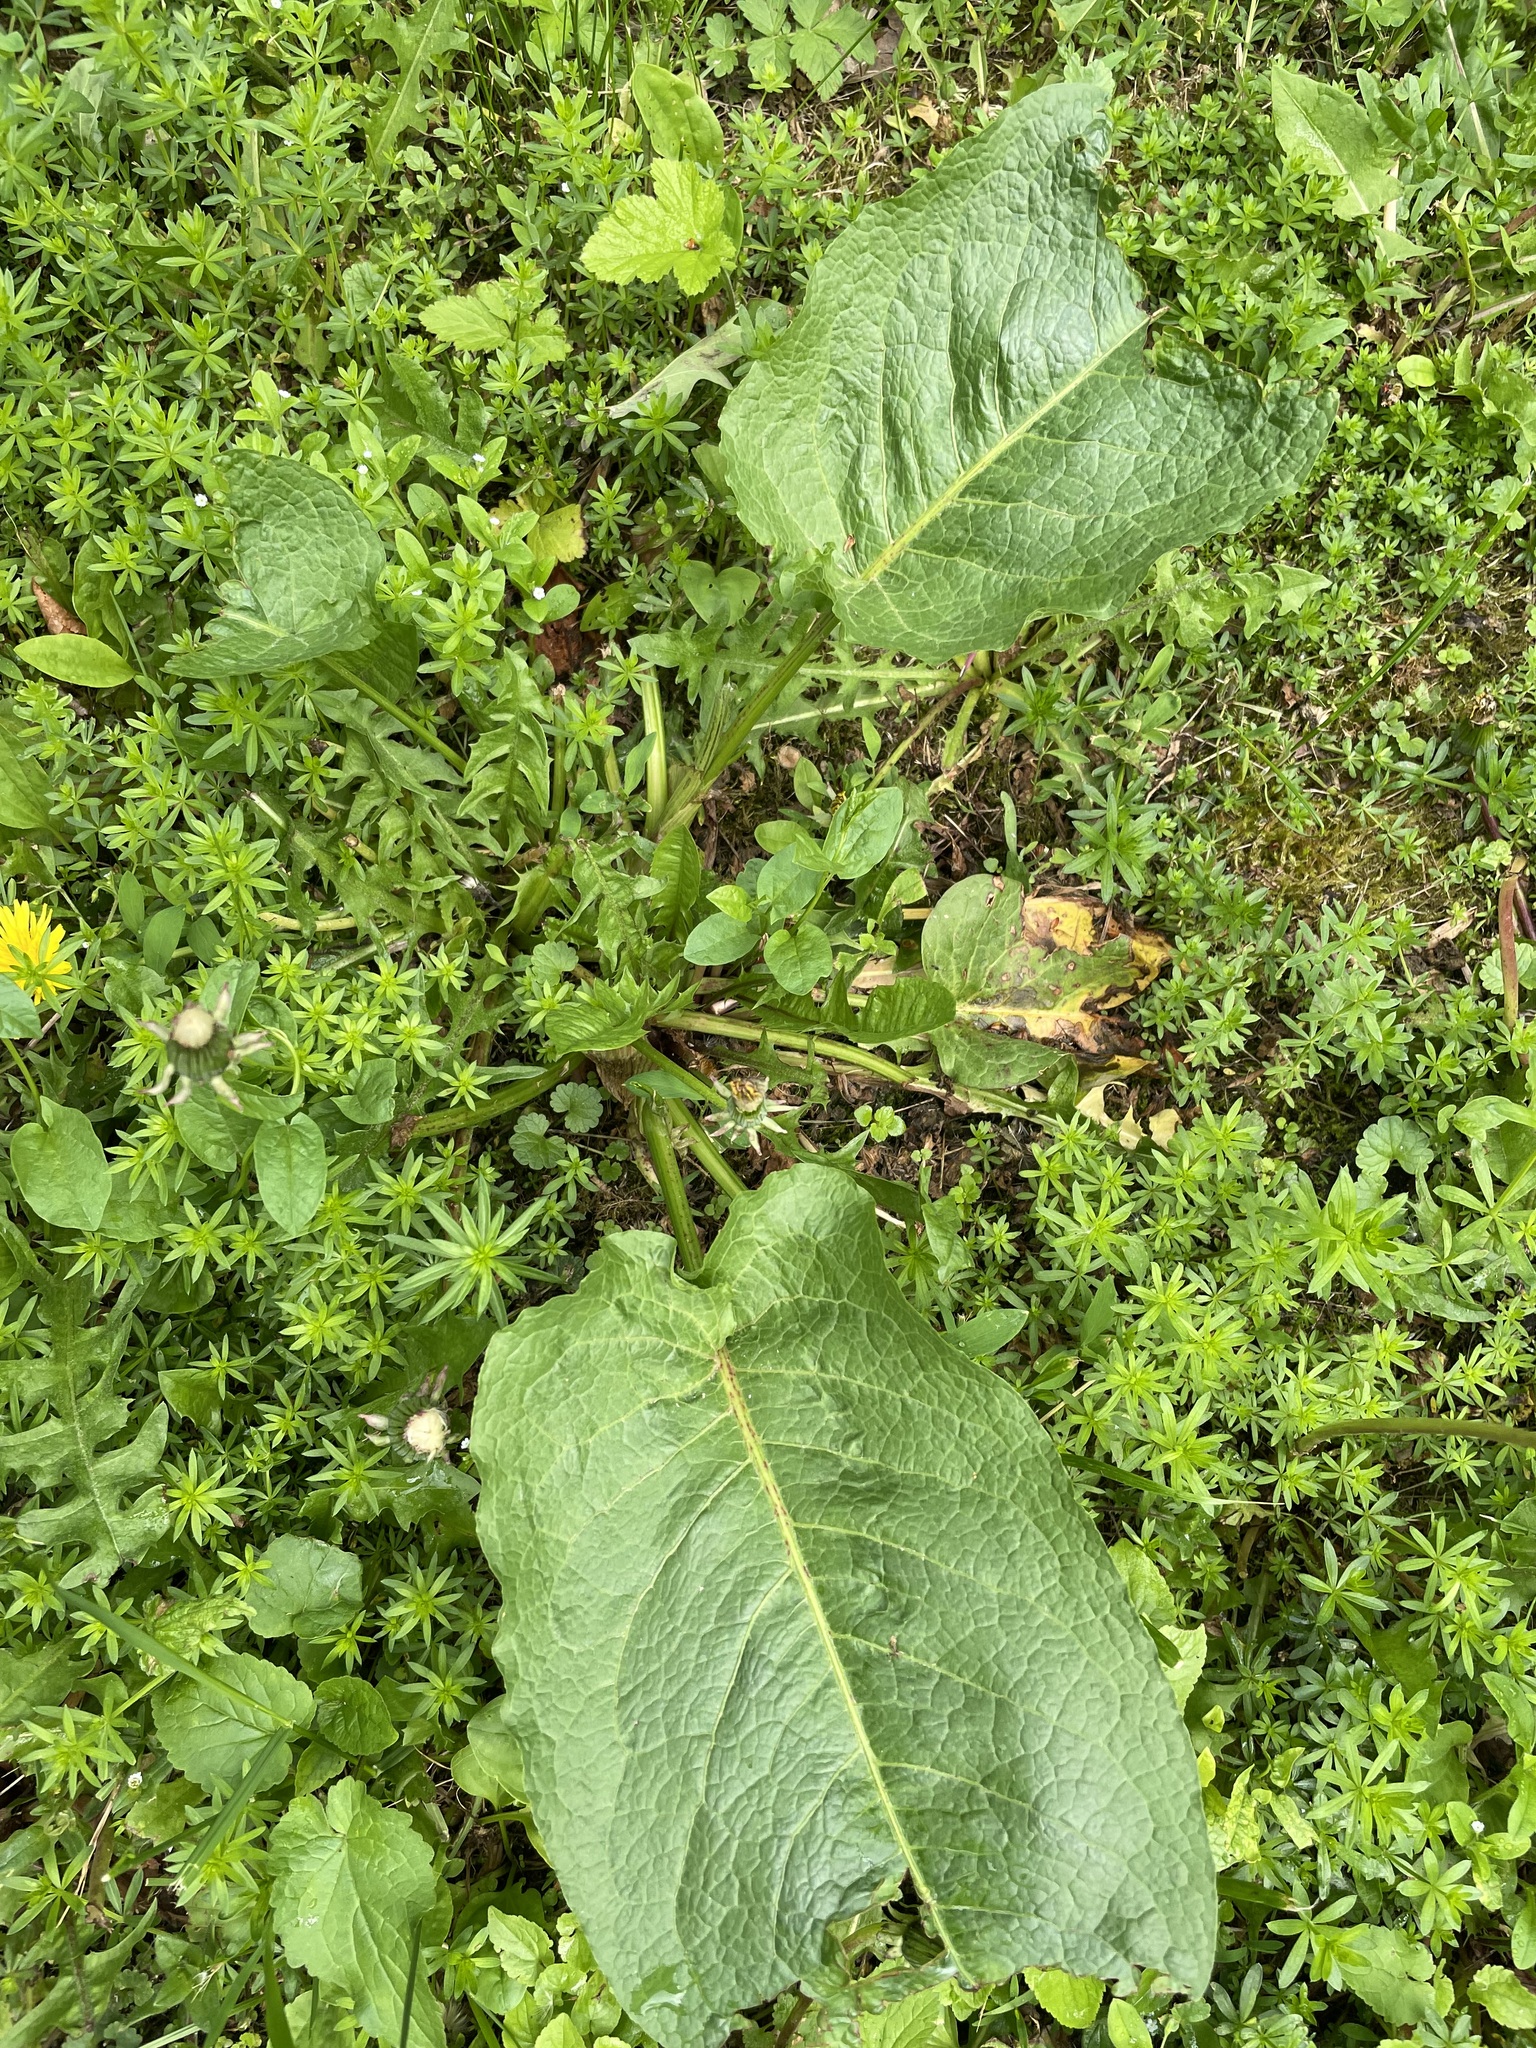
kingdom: Plantae
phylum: Tracheophyta
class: Magnoliopsida
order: Caryophyllales
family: Polygonaceae
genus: Rumex
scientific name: Rumex obtusifolius
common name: Bitter dock
